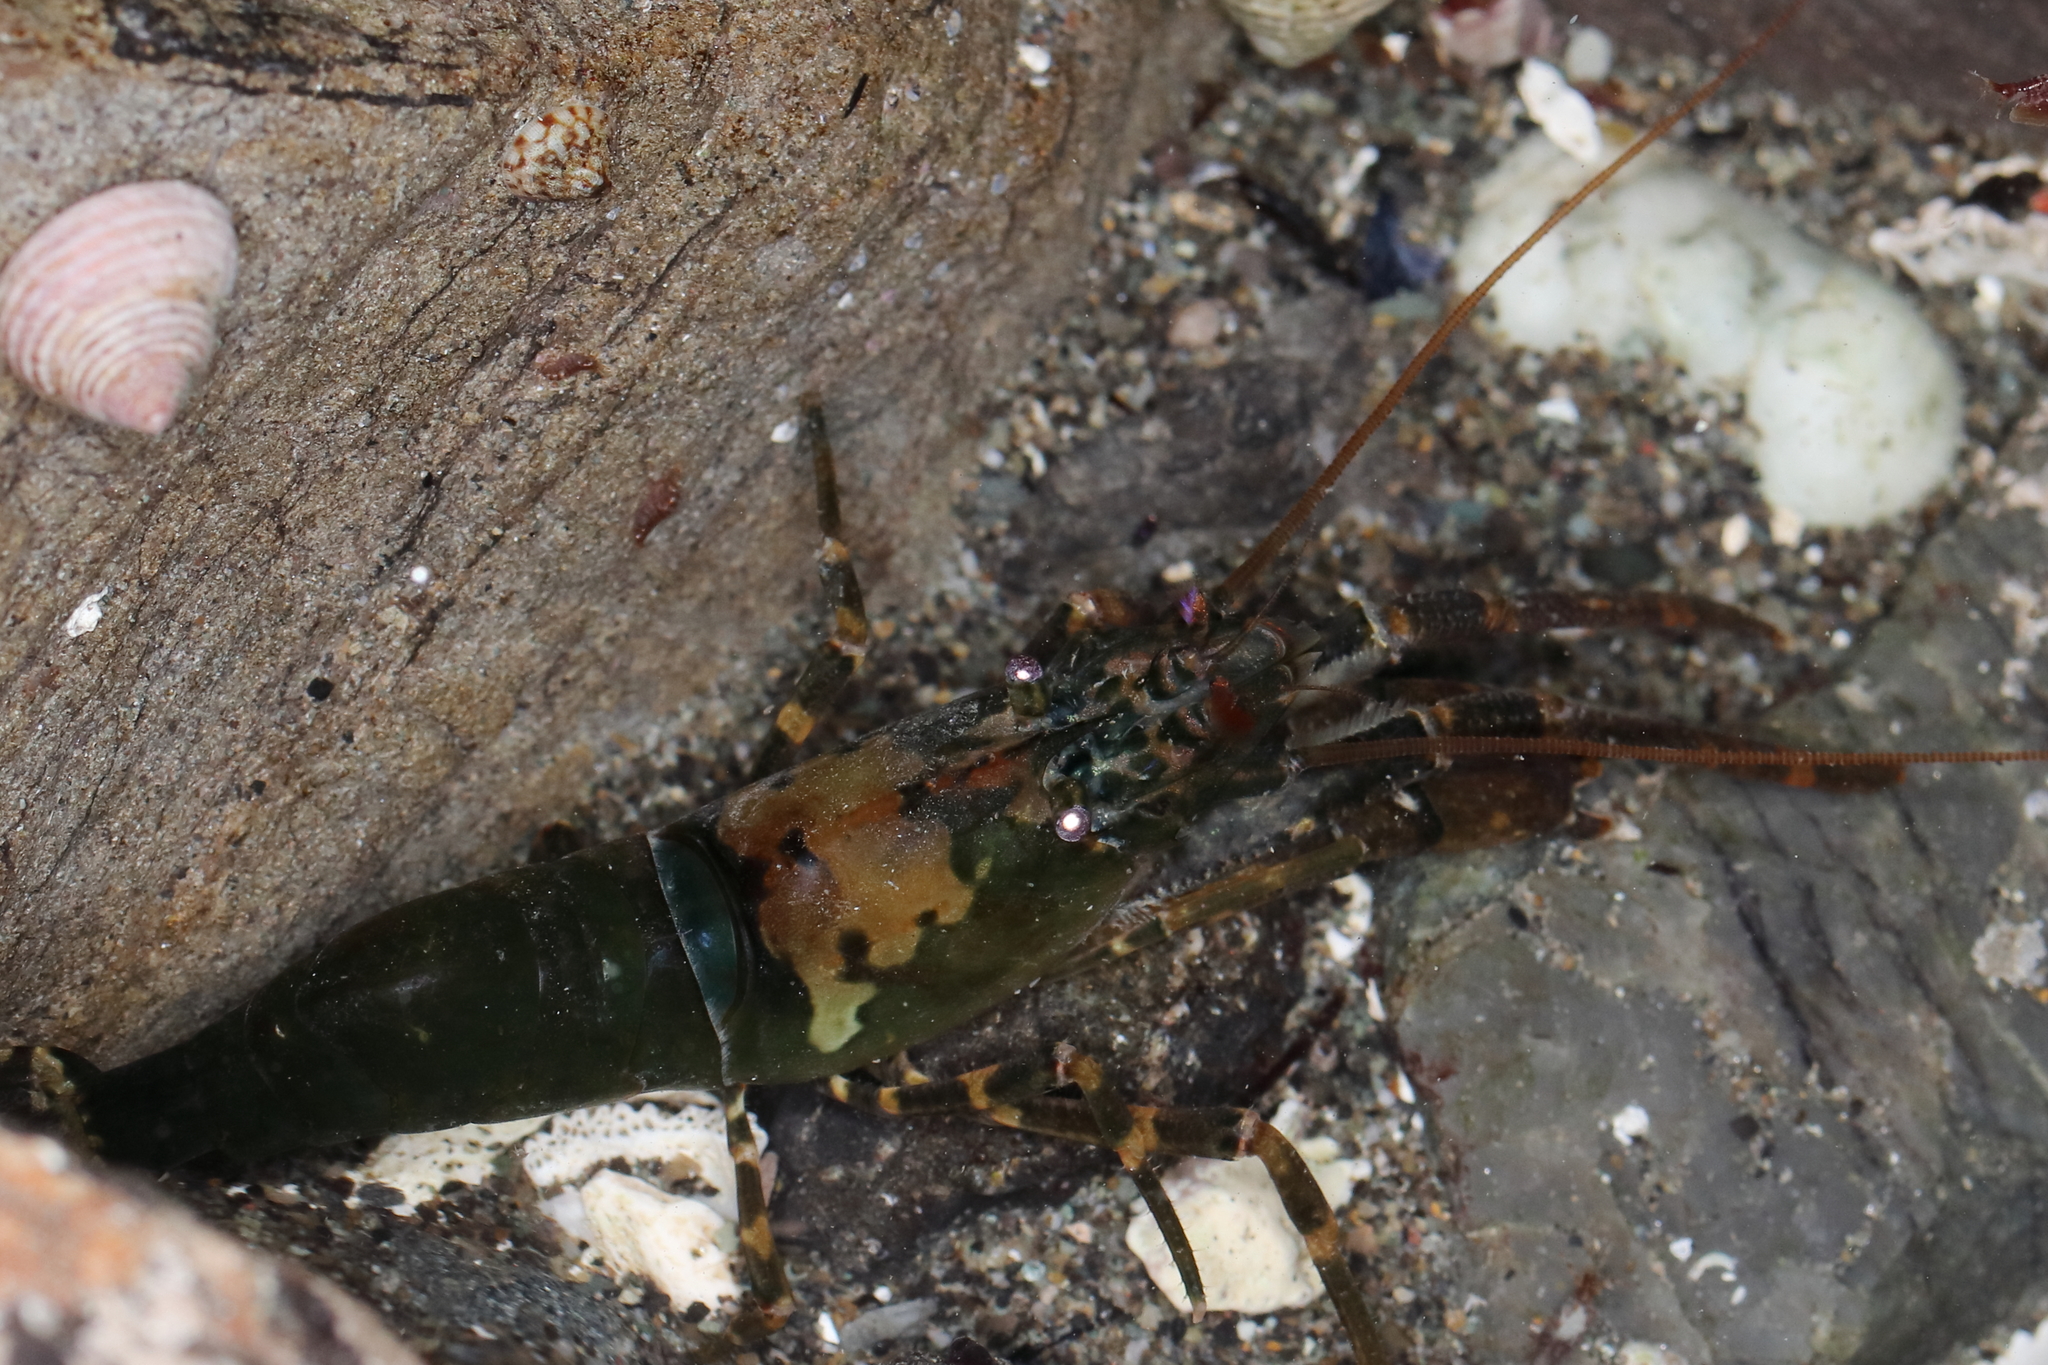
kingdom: Animalia
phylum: Arthropoda
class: Malacostraca
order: Decapoda
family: Thoridae
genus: Heptacarpus
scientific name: Heptacarpus brevirostris
